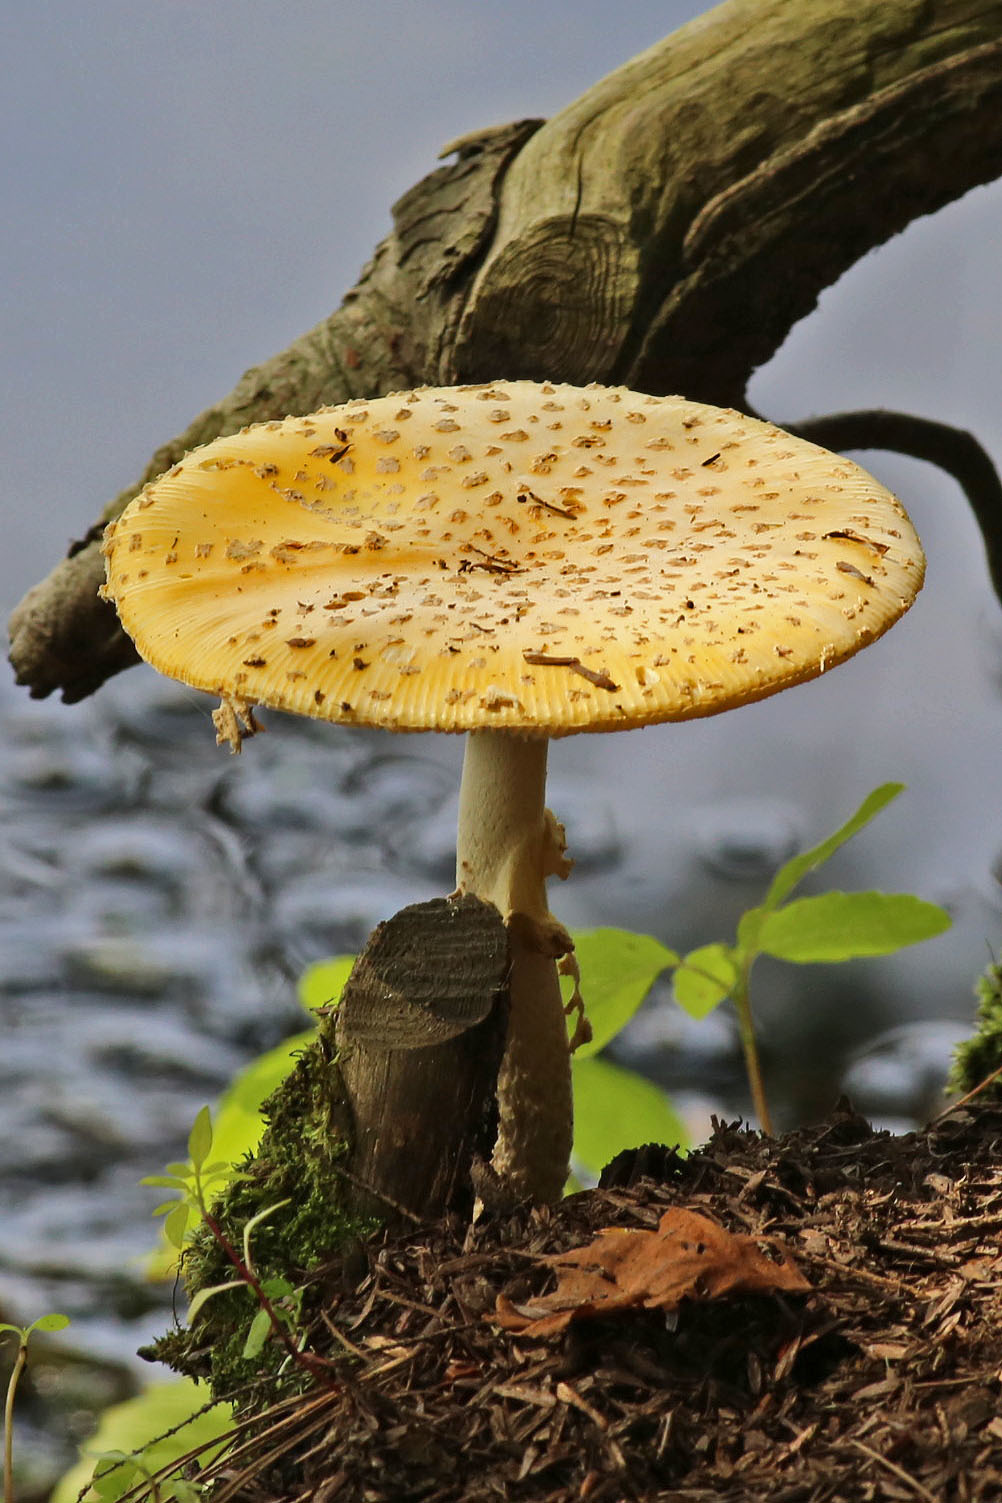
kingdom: Fungi
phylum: Basidiomycota
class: Agaricomycetes
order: Agaricales
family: Amanitaceae
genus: Amanita
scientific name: Amanita muscaria
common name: Fly agaric
